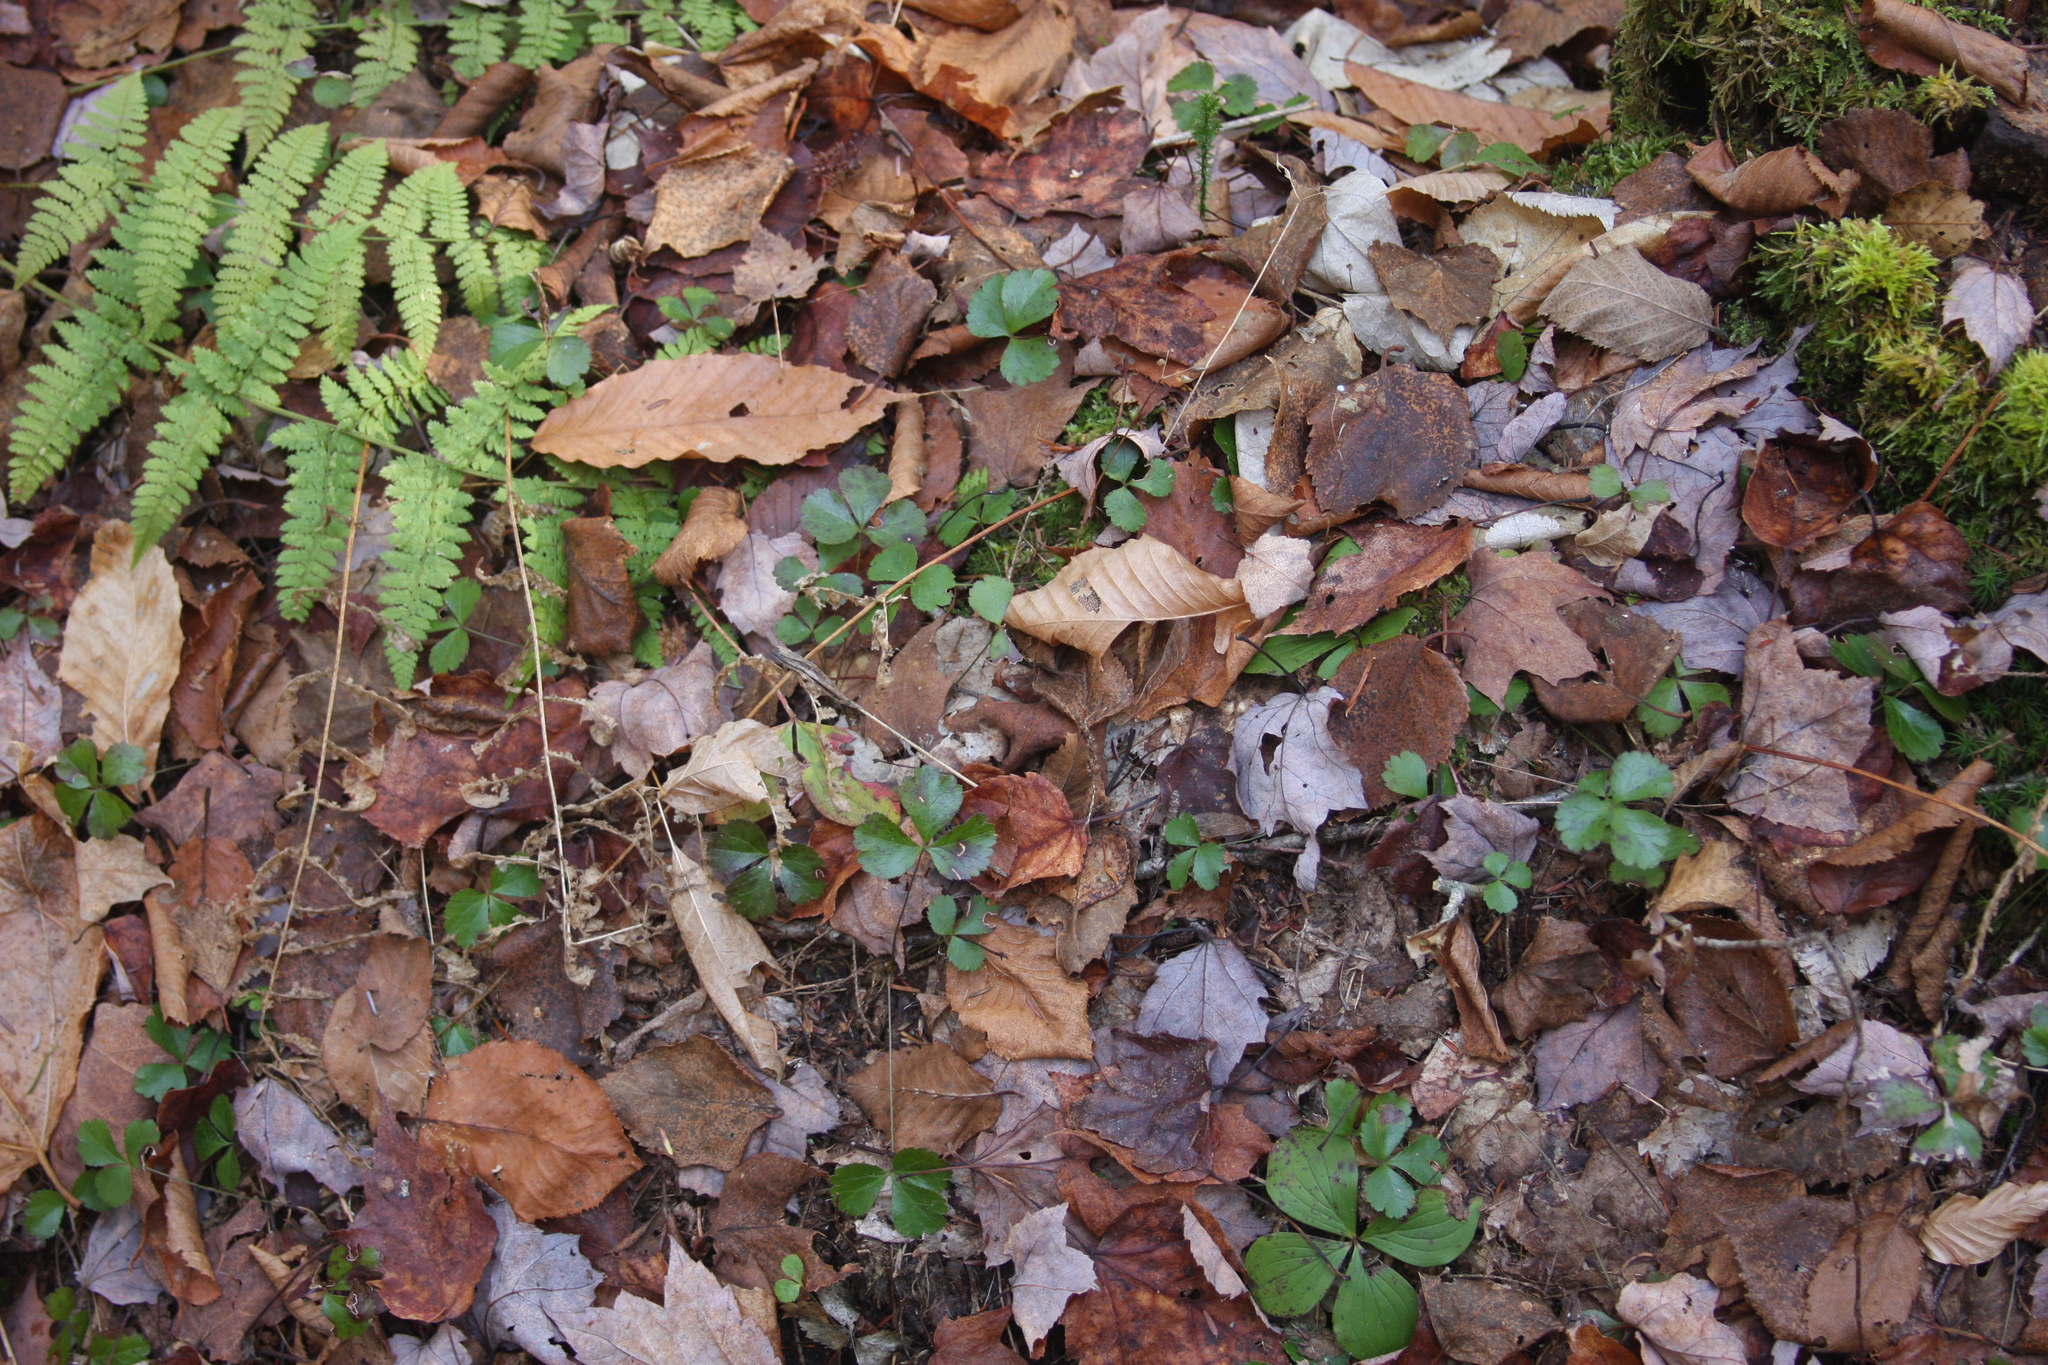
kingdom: Plantae
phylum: Tracheophyta
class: Magnoliopsida
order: Ranunculales
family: Ranunculaceae
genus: Coptis
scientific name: Coptis trifolia
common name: Canker-root
